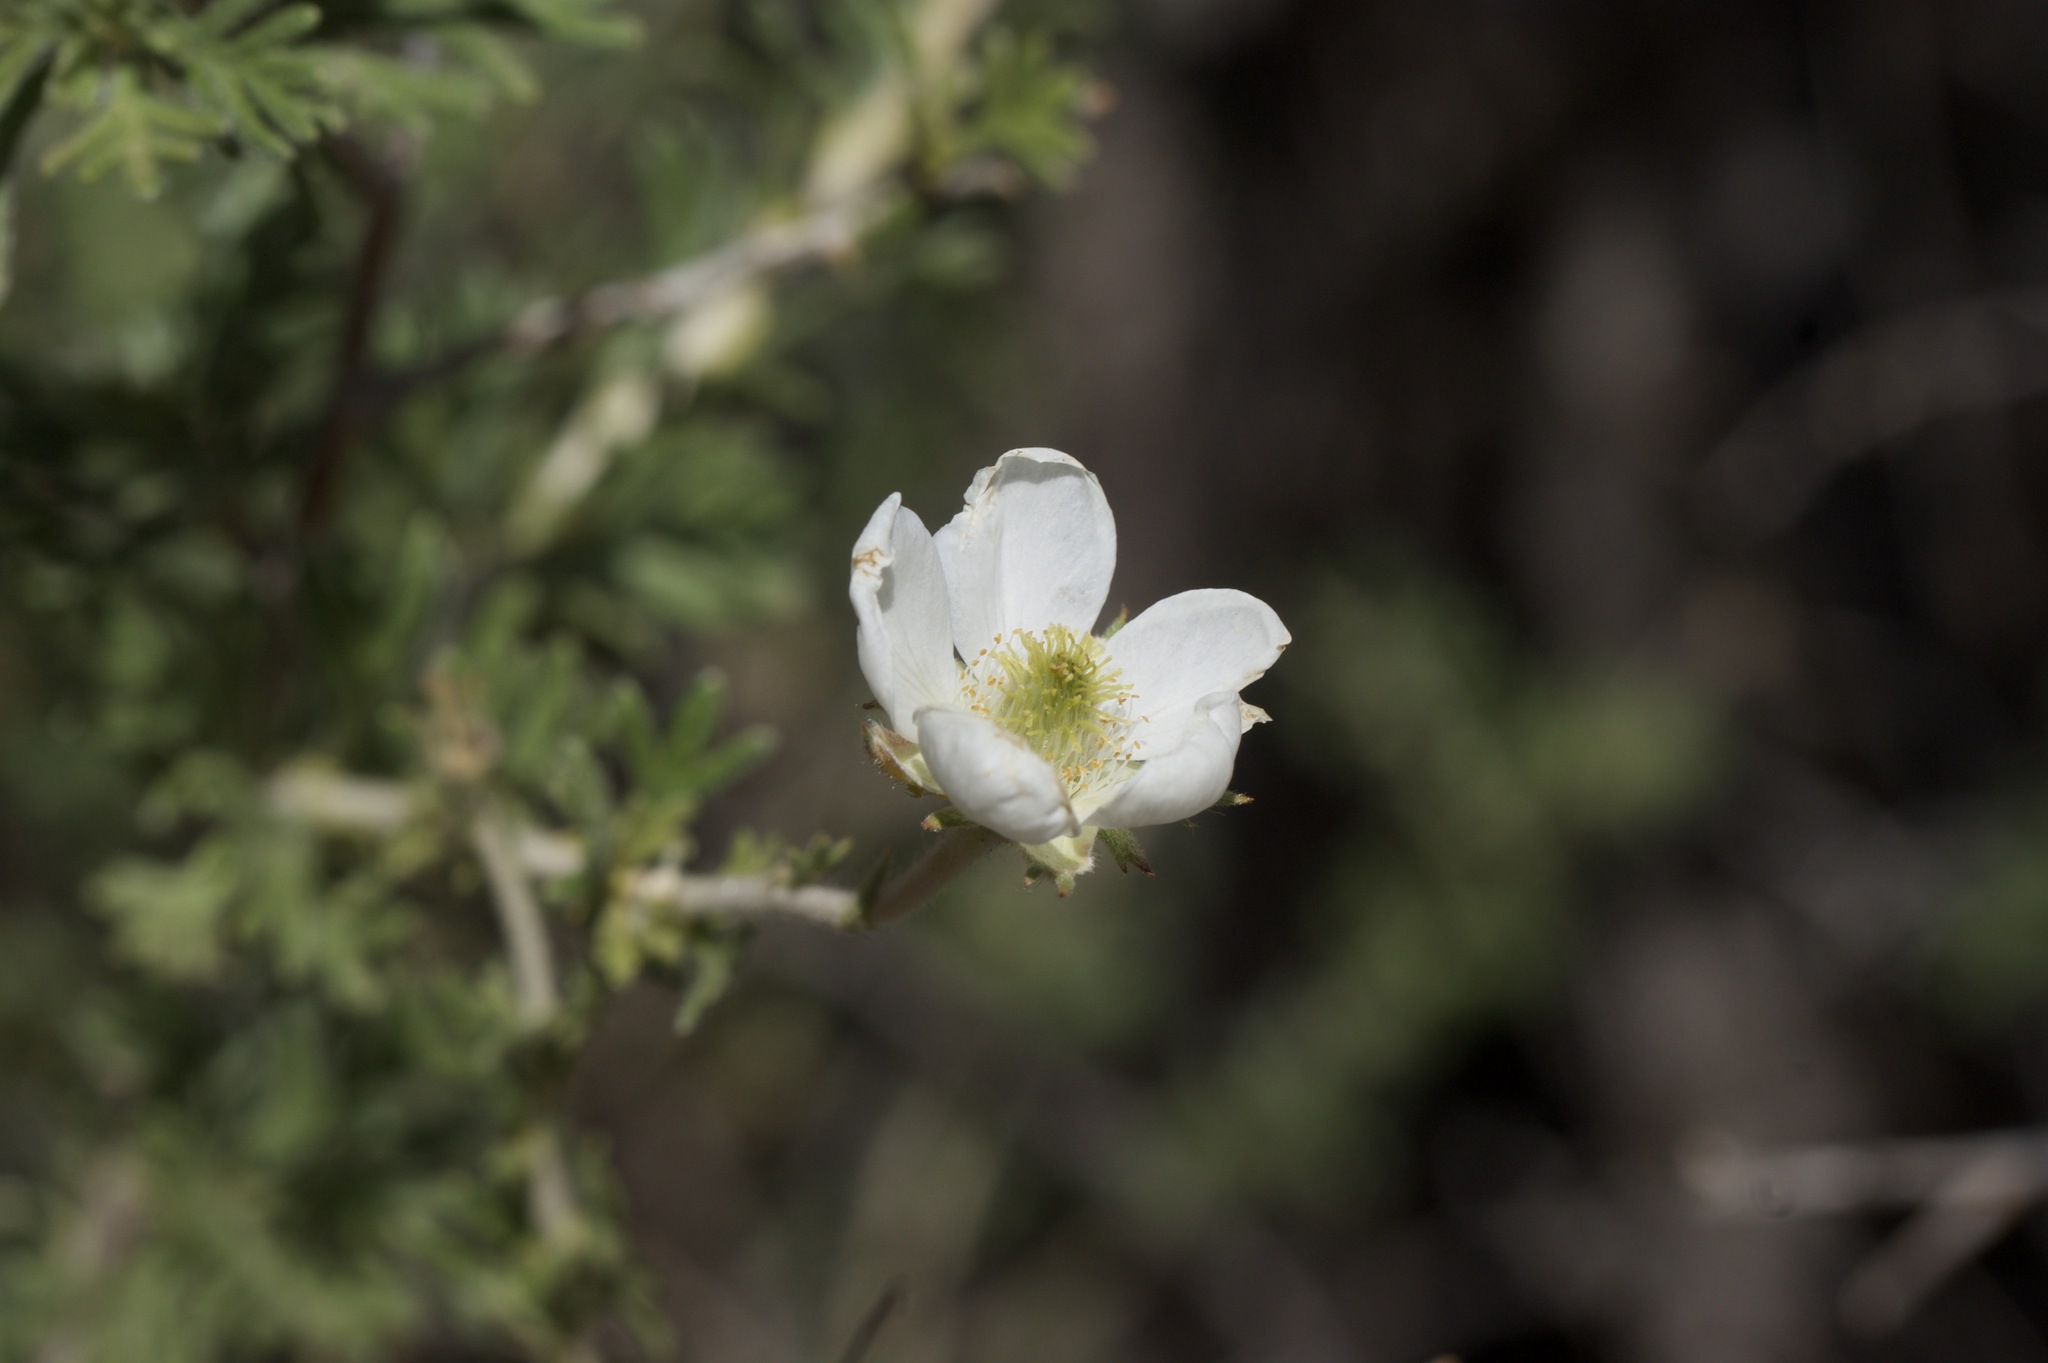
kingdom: Plantae
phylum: Tracheophyta
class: Magnoliopsida
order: Rosales
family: Rosaceae
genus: Fallugia
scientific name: Fallugia paradoxa
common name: Apache-plume
